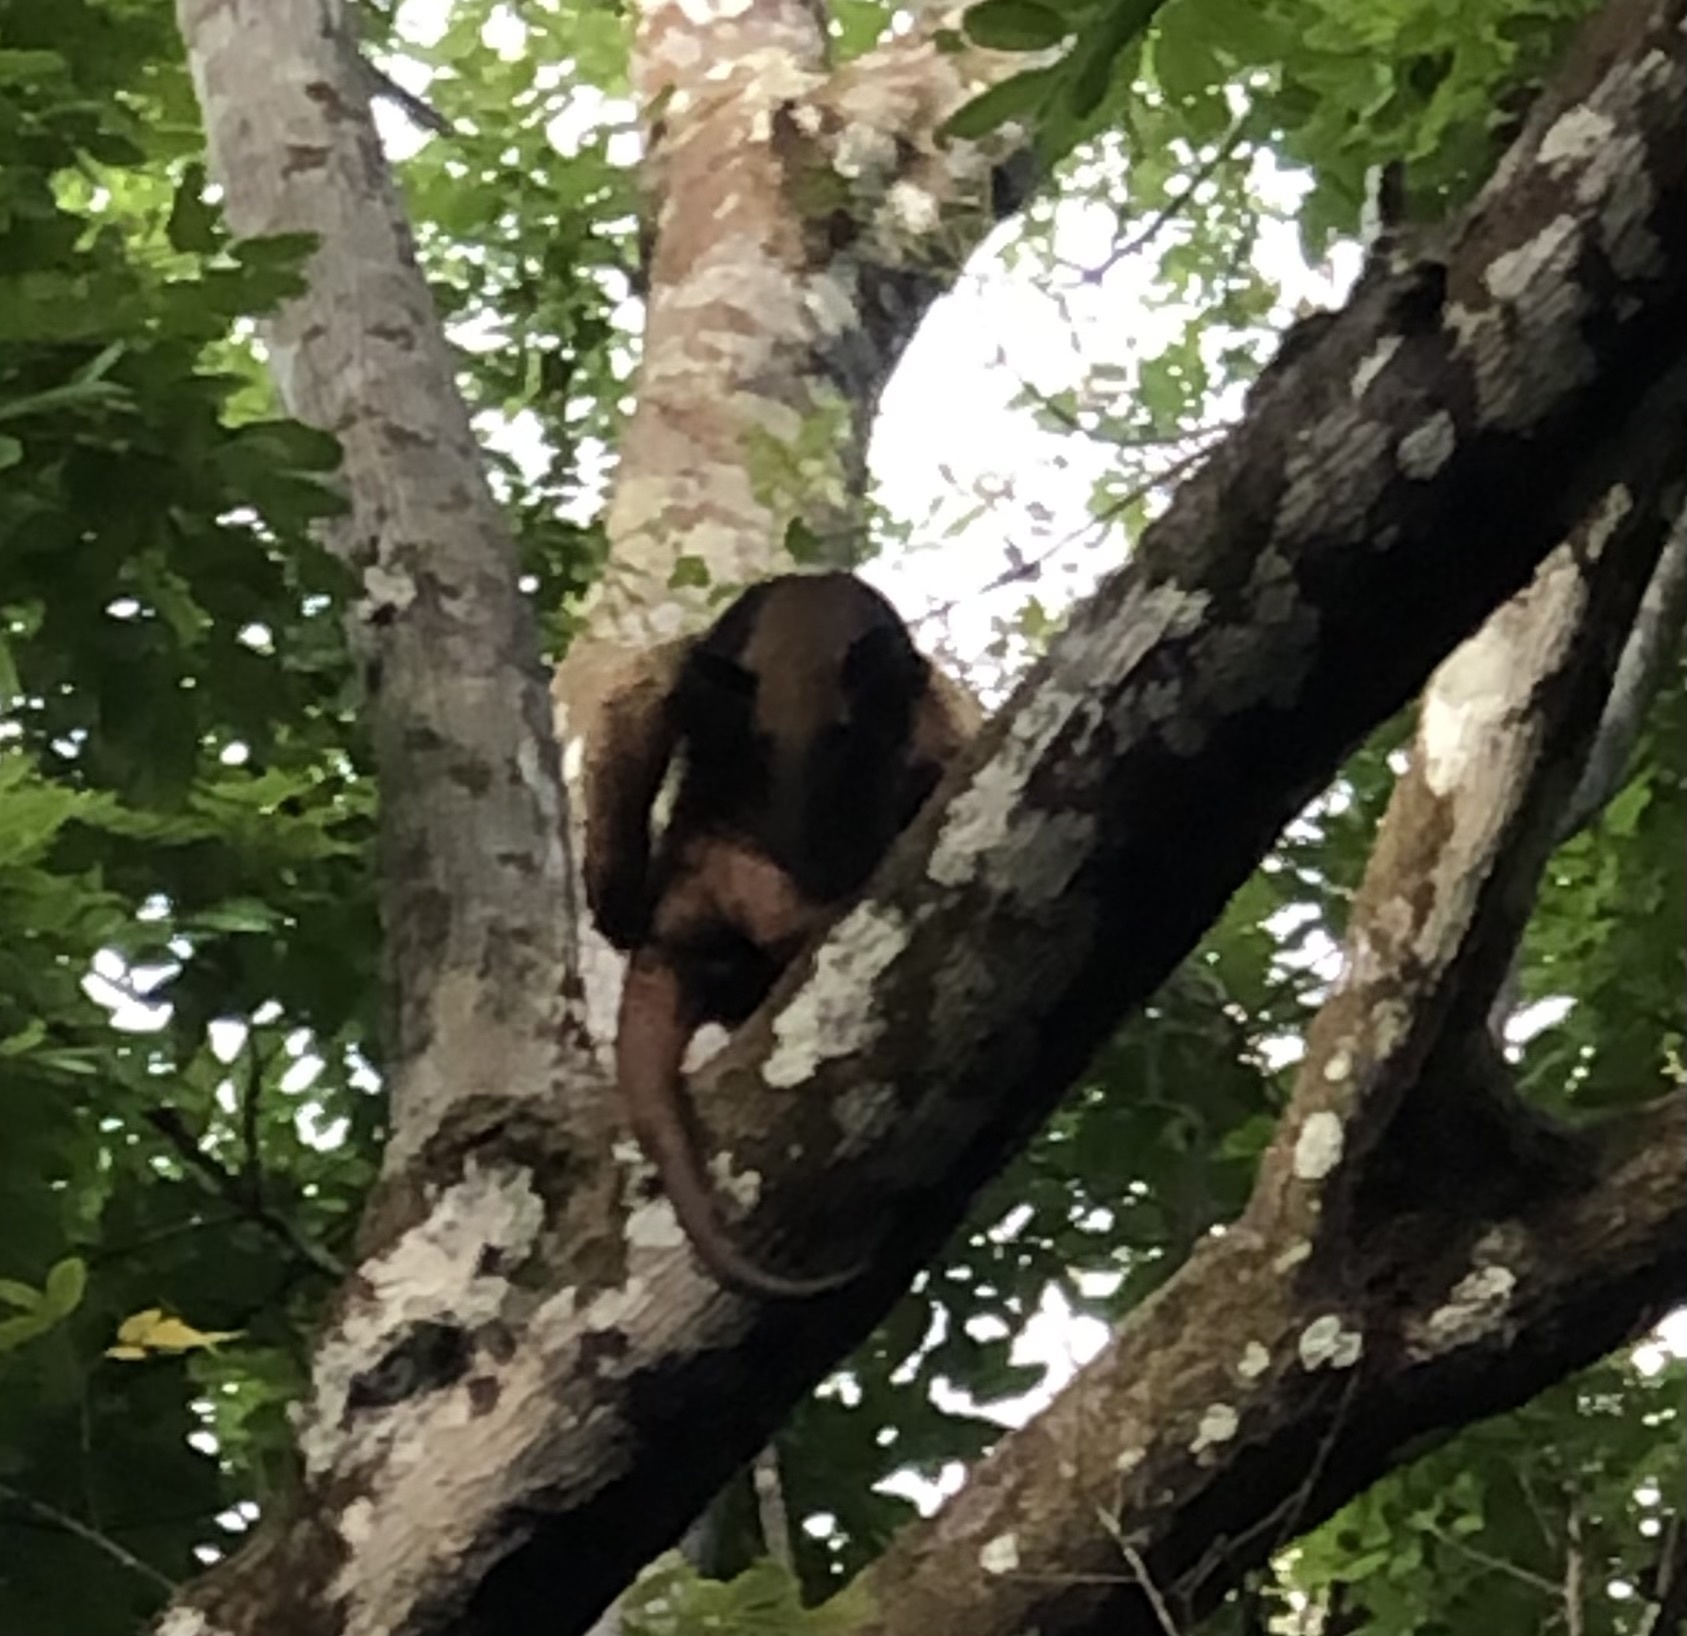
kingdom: Animalia
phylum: Chordata
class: Mammalia
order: Pilosa
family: Myrmecophagidae
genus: Tamandua
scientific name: Tamandua tetradactyla
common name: Southern tamandua
